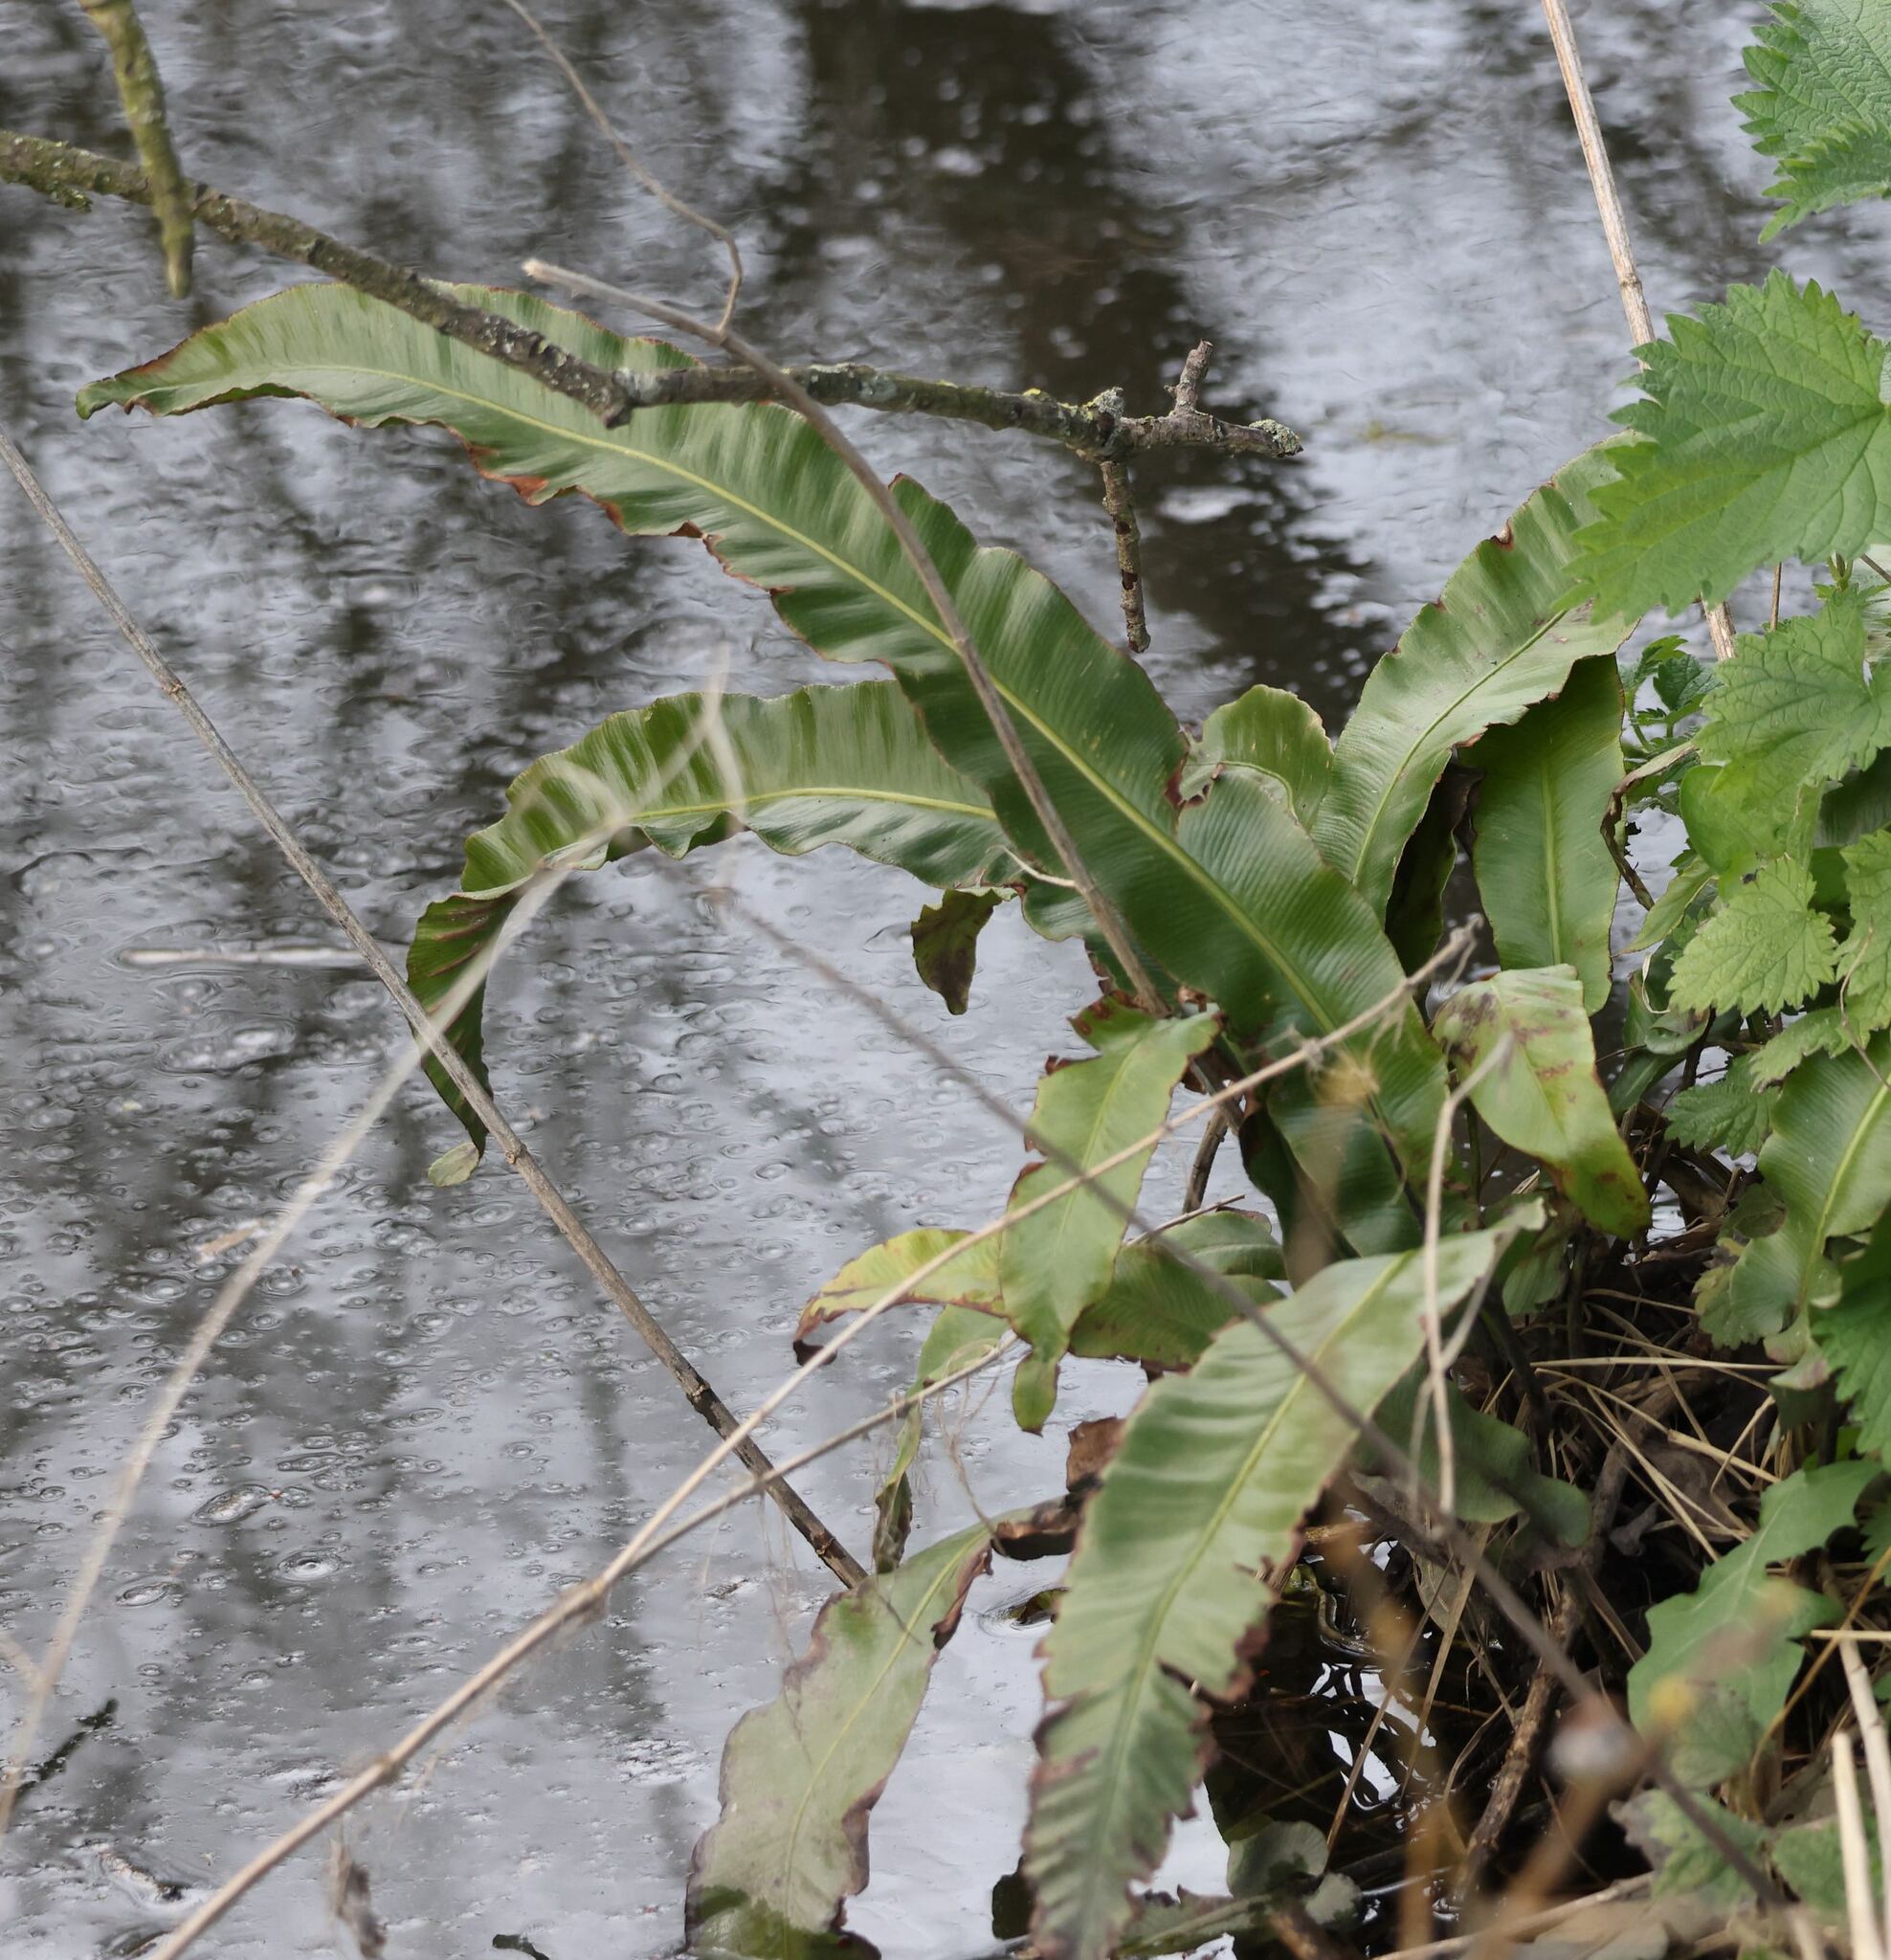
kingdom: Plantae
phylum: Tracheophyta
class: Polypodiopsida
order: Polypodiales
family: Aspleniaceae
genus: Asplenium
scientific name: Asplenium scolopendrium
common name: Hart's-tongue fern
